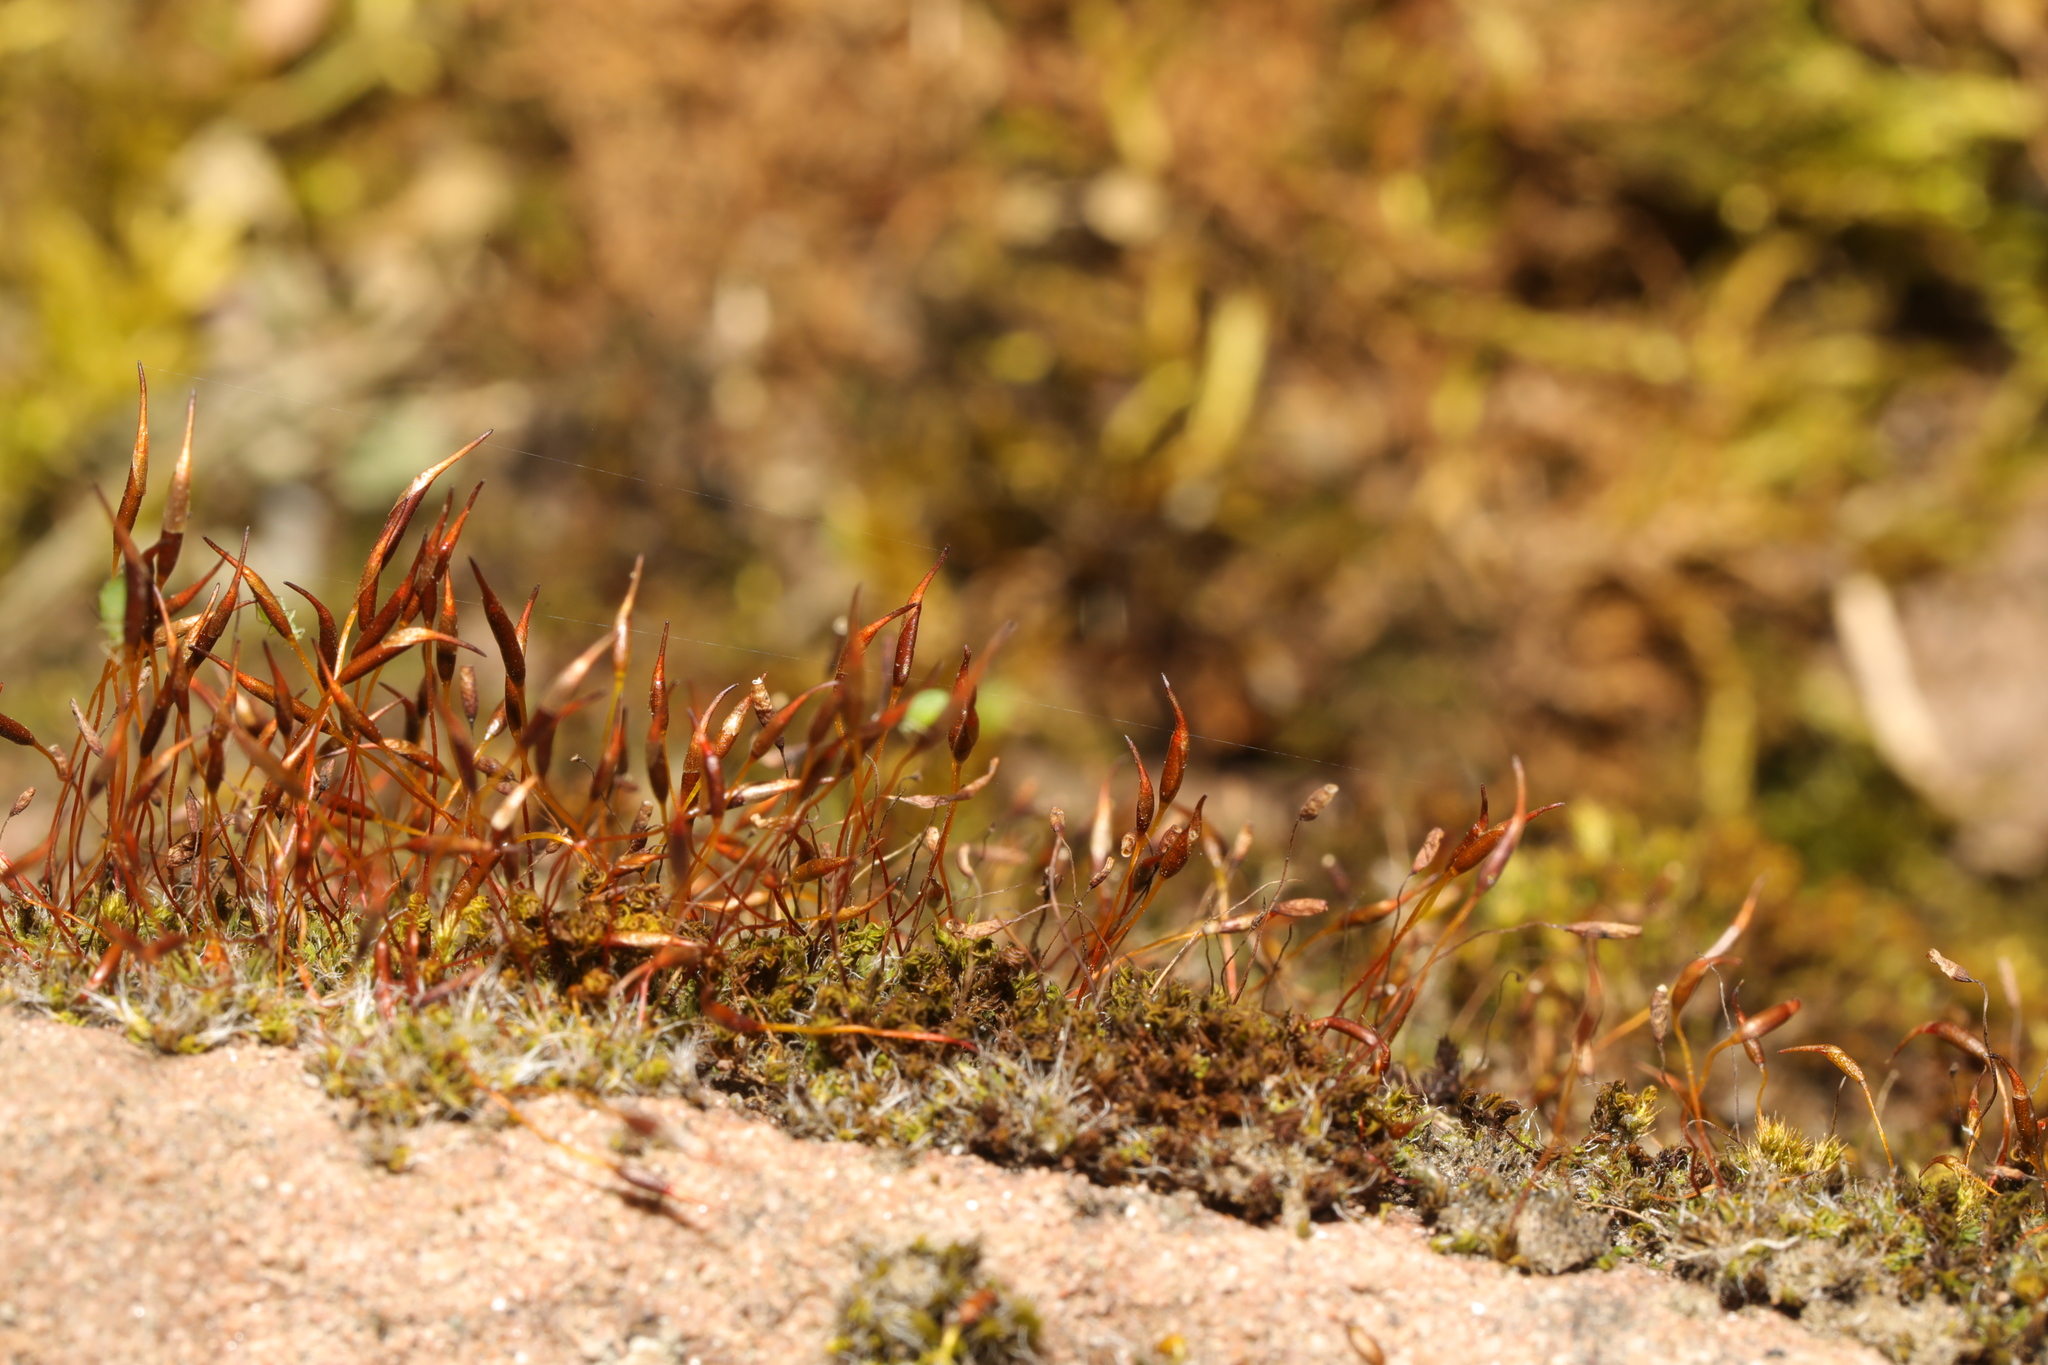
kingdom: Plantae
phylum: Bryophyta
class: Bryopsida
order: Pottiales
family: Pottiaceae
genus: Tortula
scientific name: Tortula muralis
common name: Wall screw-moss
